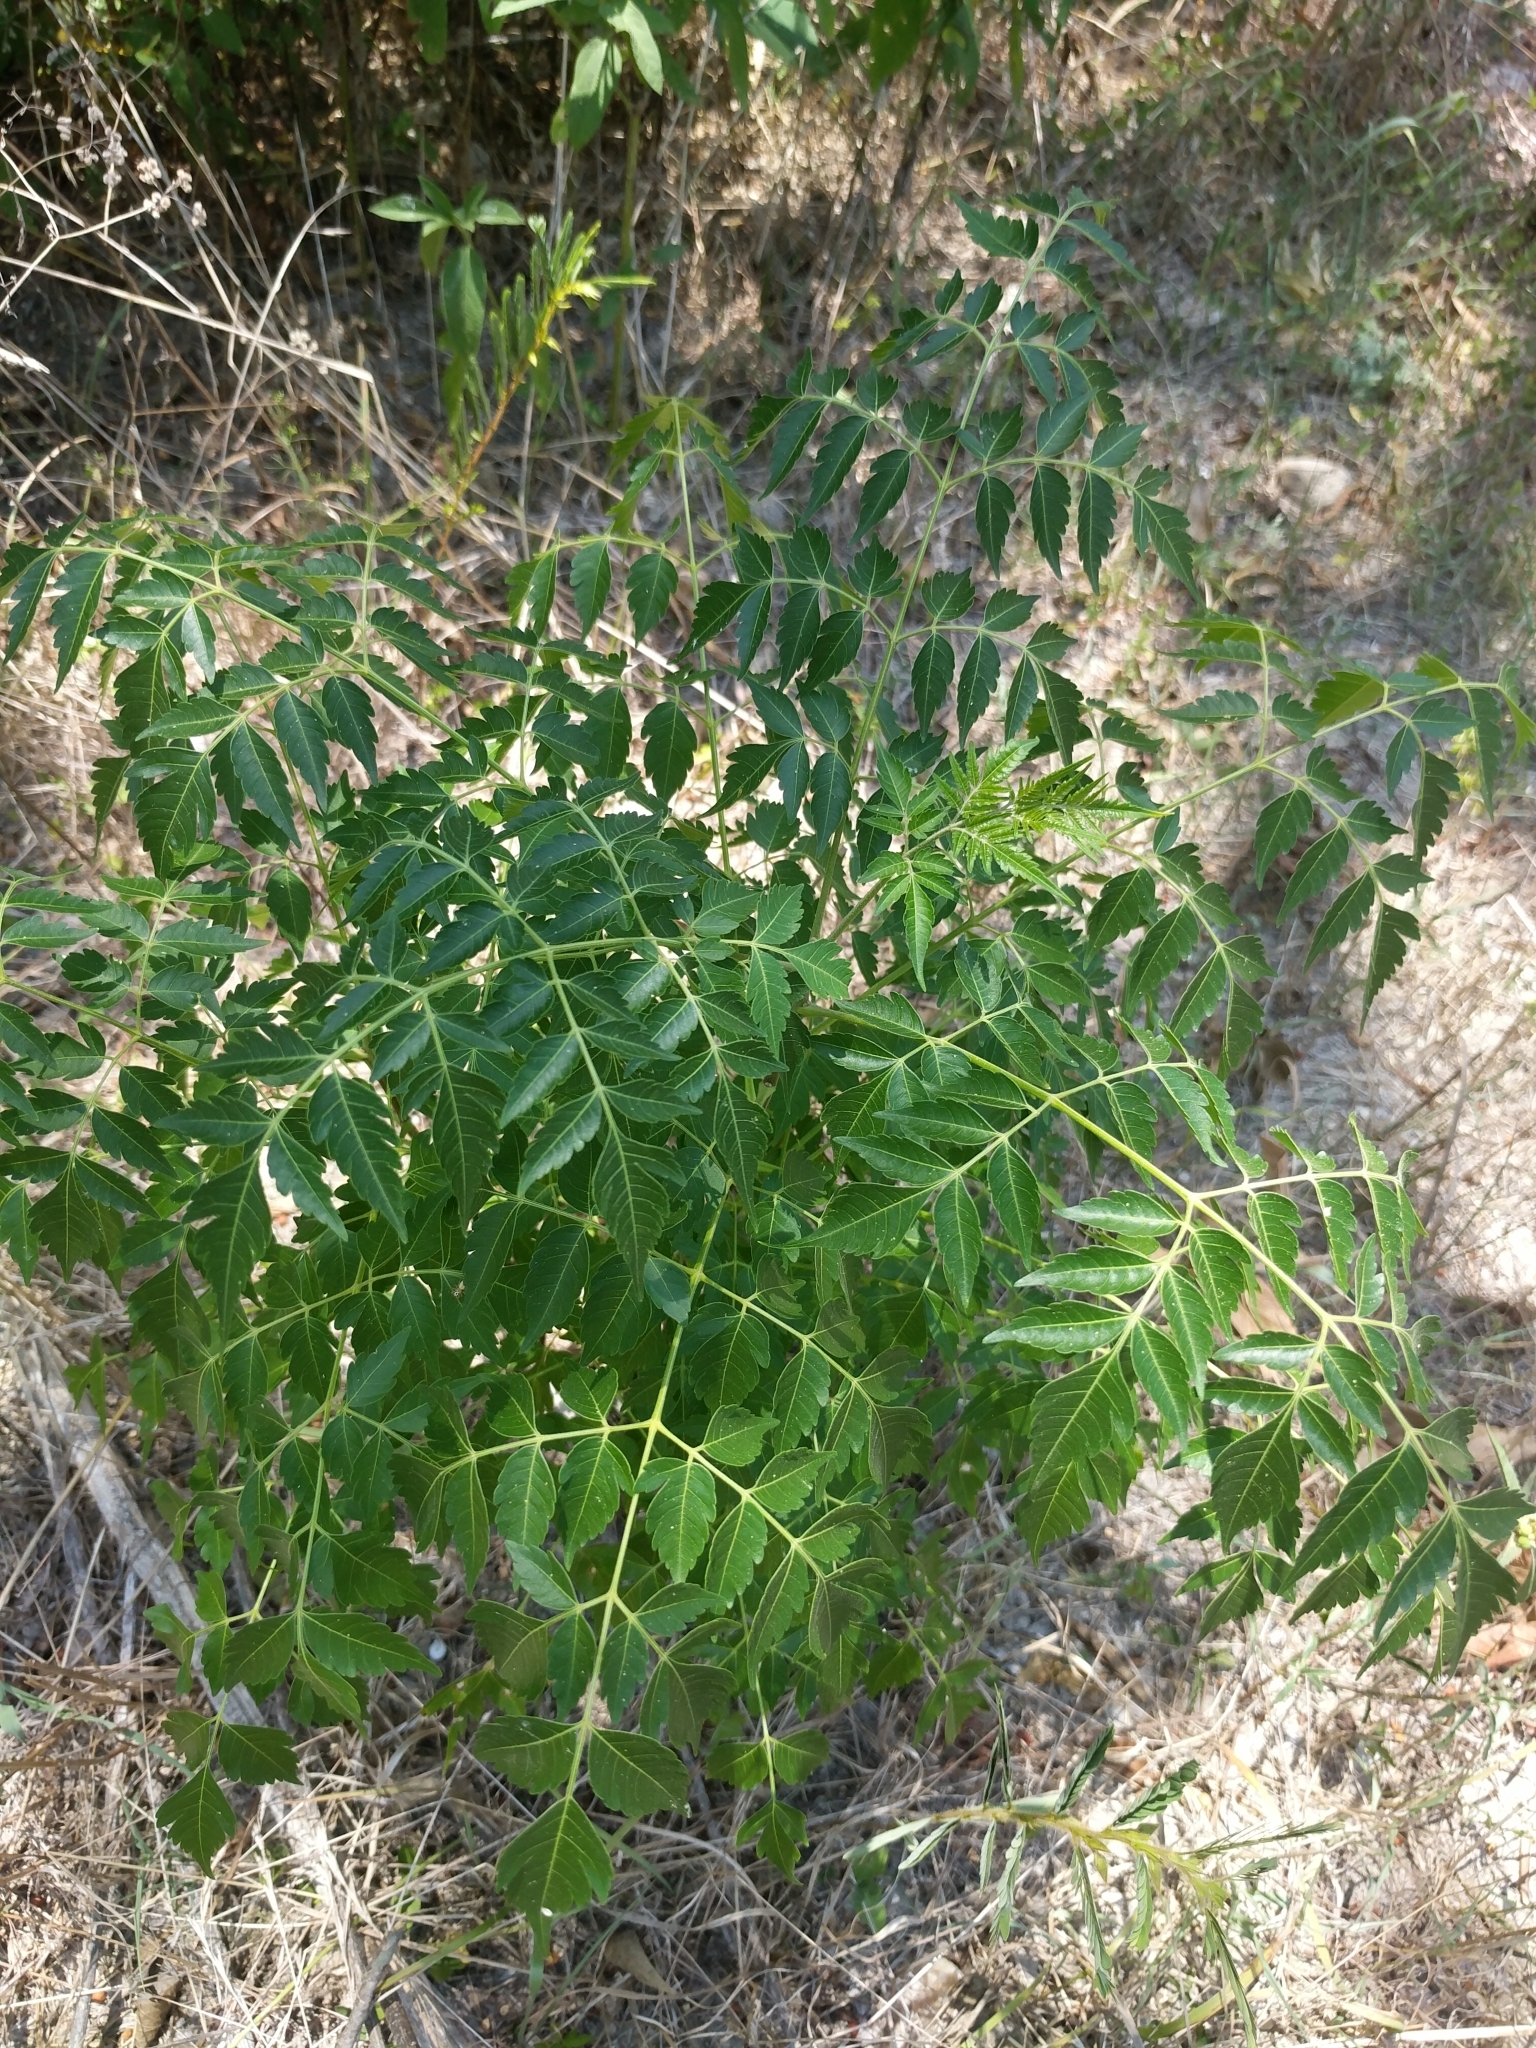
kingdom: Plantae
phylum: Tracheophyta
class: Magnoliopsida
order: Sapindales
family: Meliaceae
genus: Melia
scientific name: Melia azedarach
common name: Chinaberrytree
